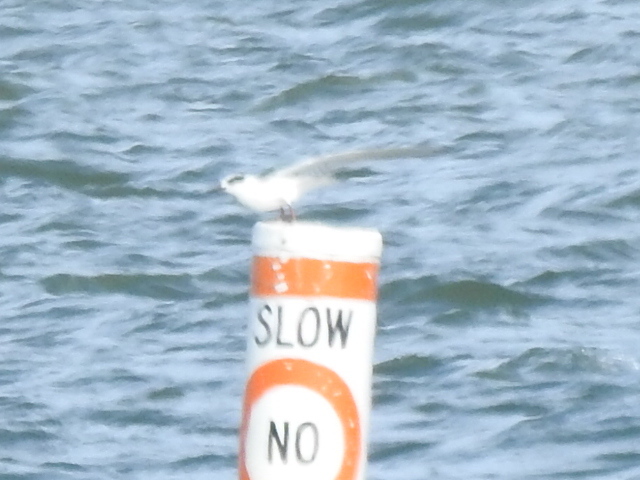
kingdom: Animalia
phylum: Chordata
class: Aves
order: Charadriiformes
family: Laridae
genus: Sterna
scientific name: Sterna forsteri
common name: Forster's tern
